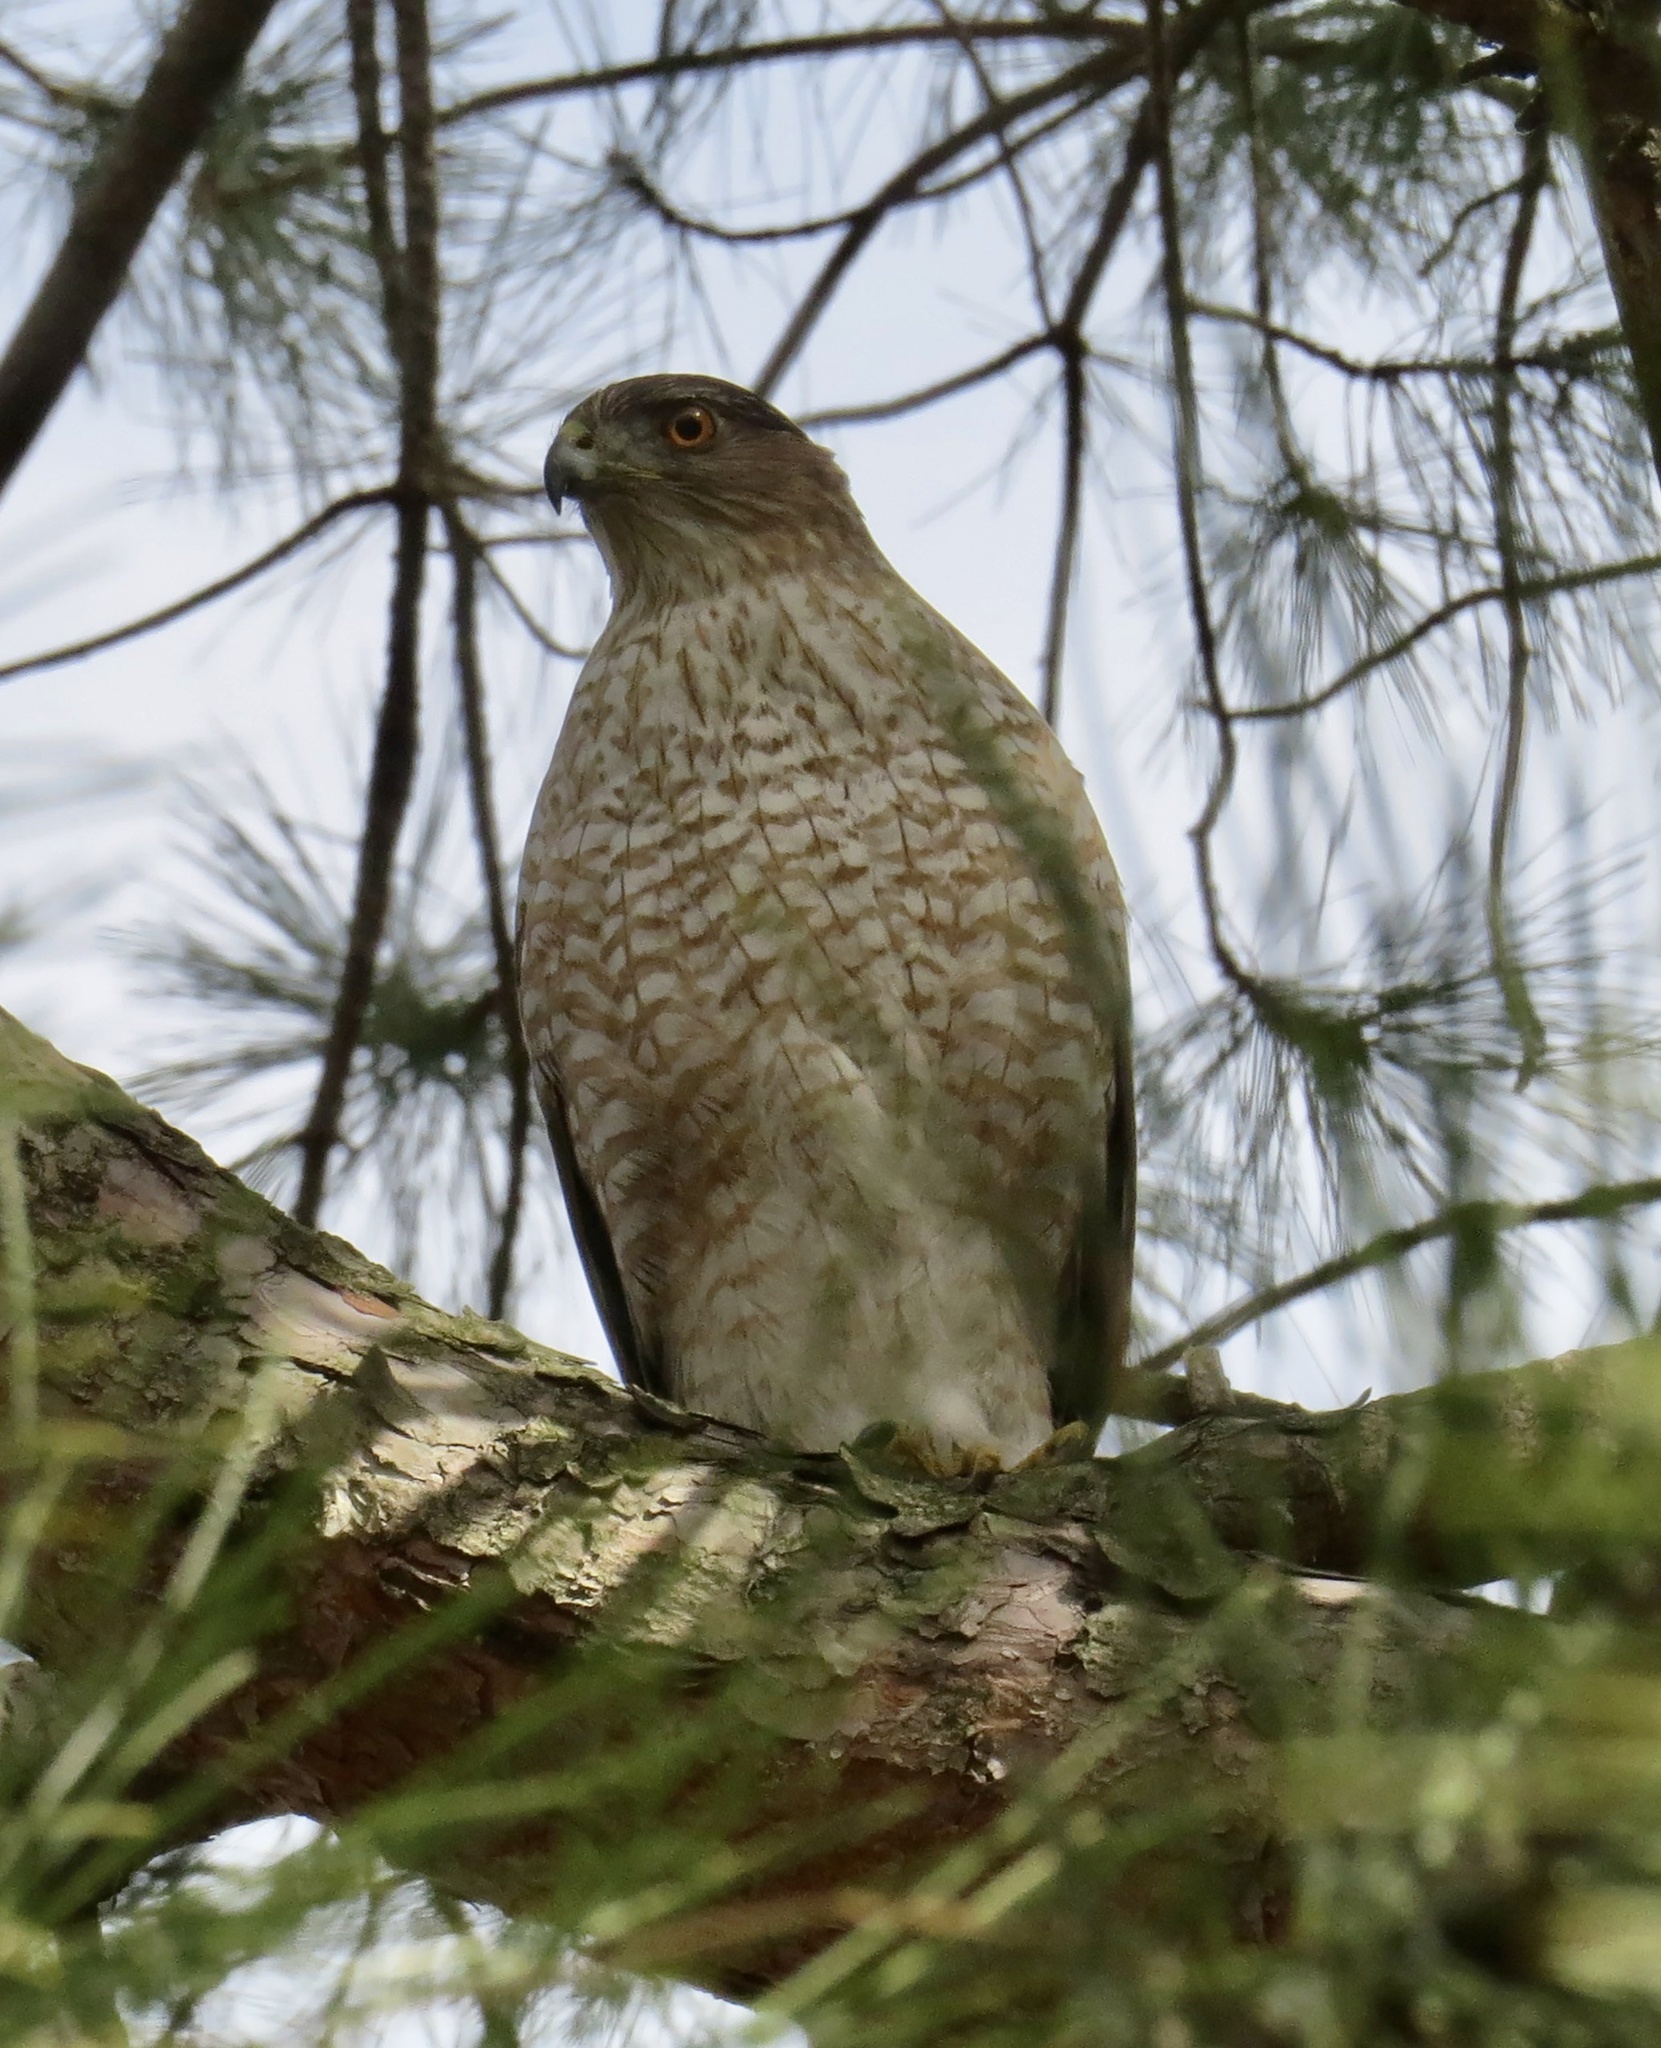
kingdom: Animalia
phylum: Chordata
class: Aves
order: Accipitriformes
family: Accipitridae
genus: Accipiter
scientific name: Accipiter cooperii
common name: Cooper's hawk
